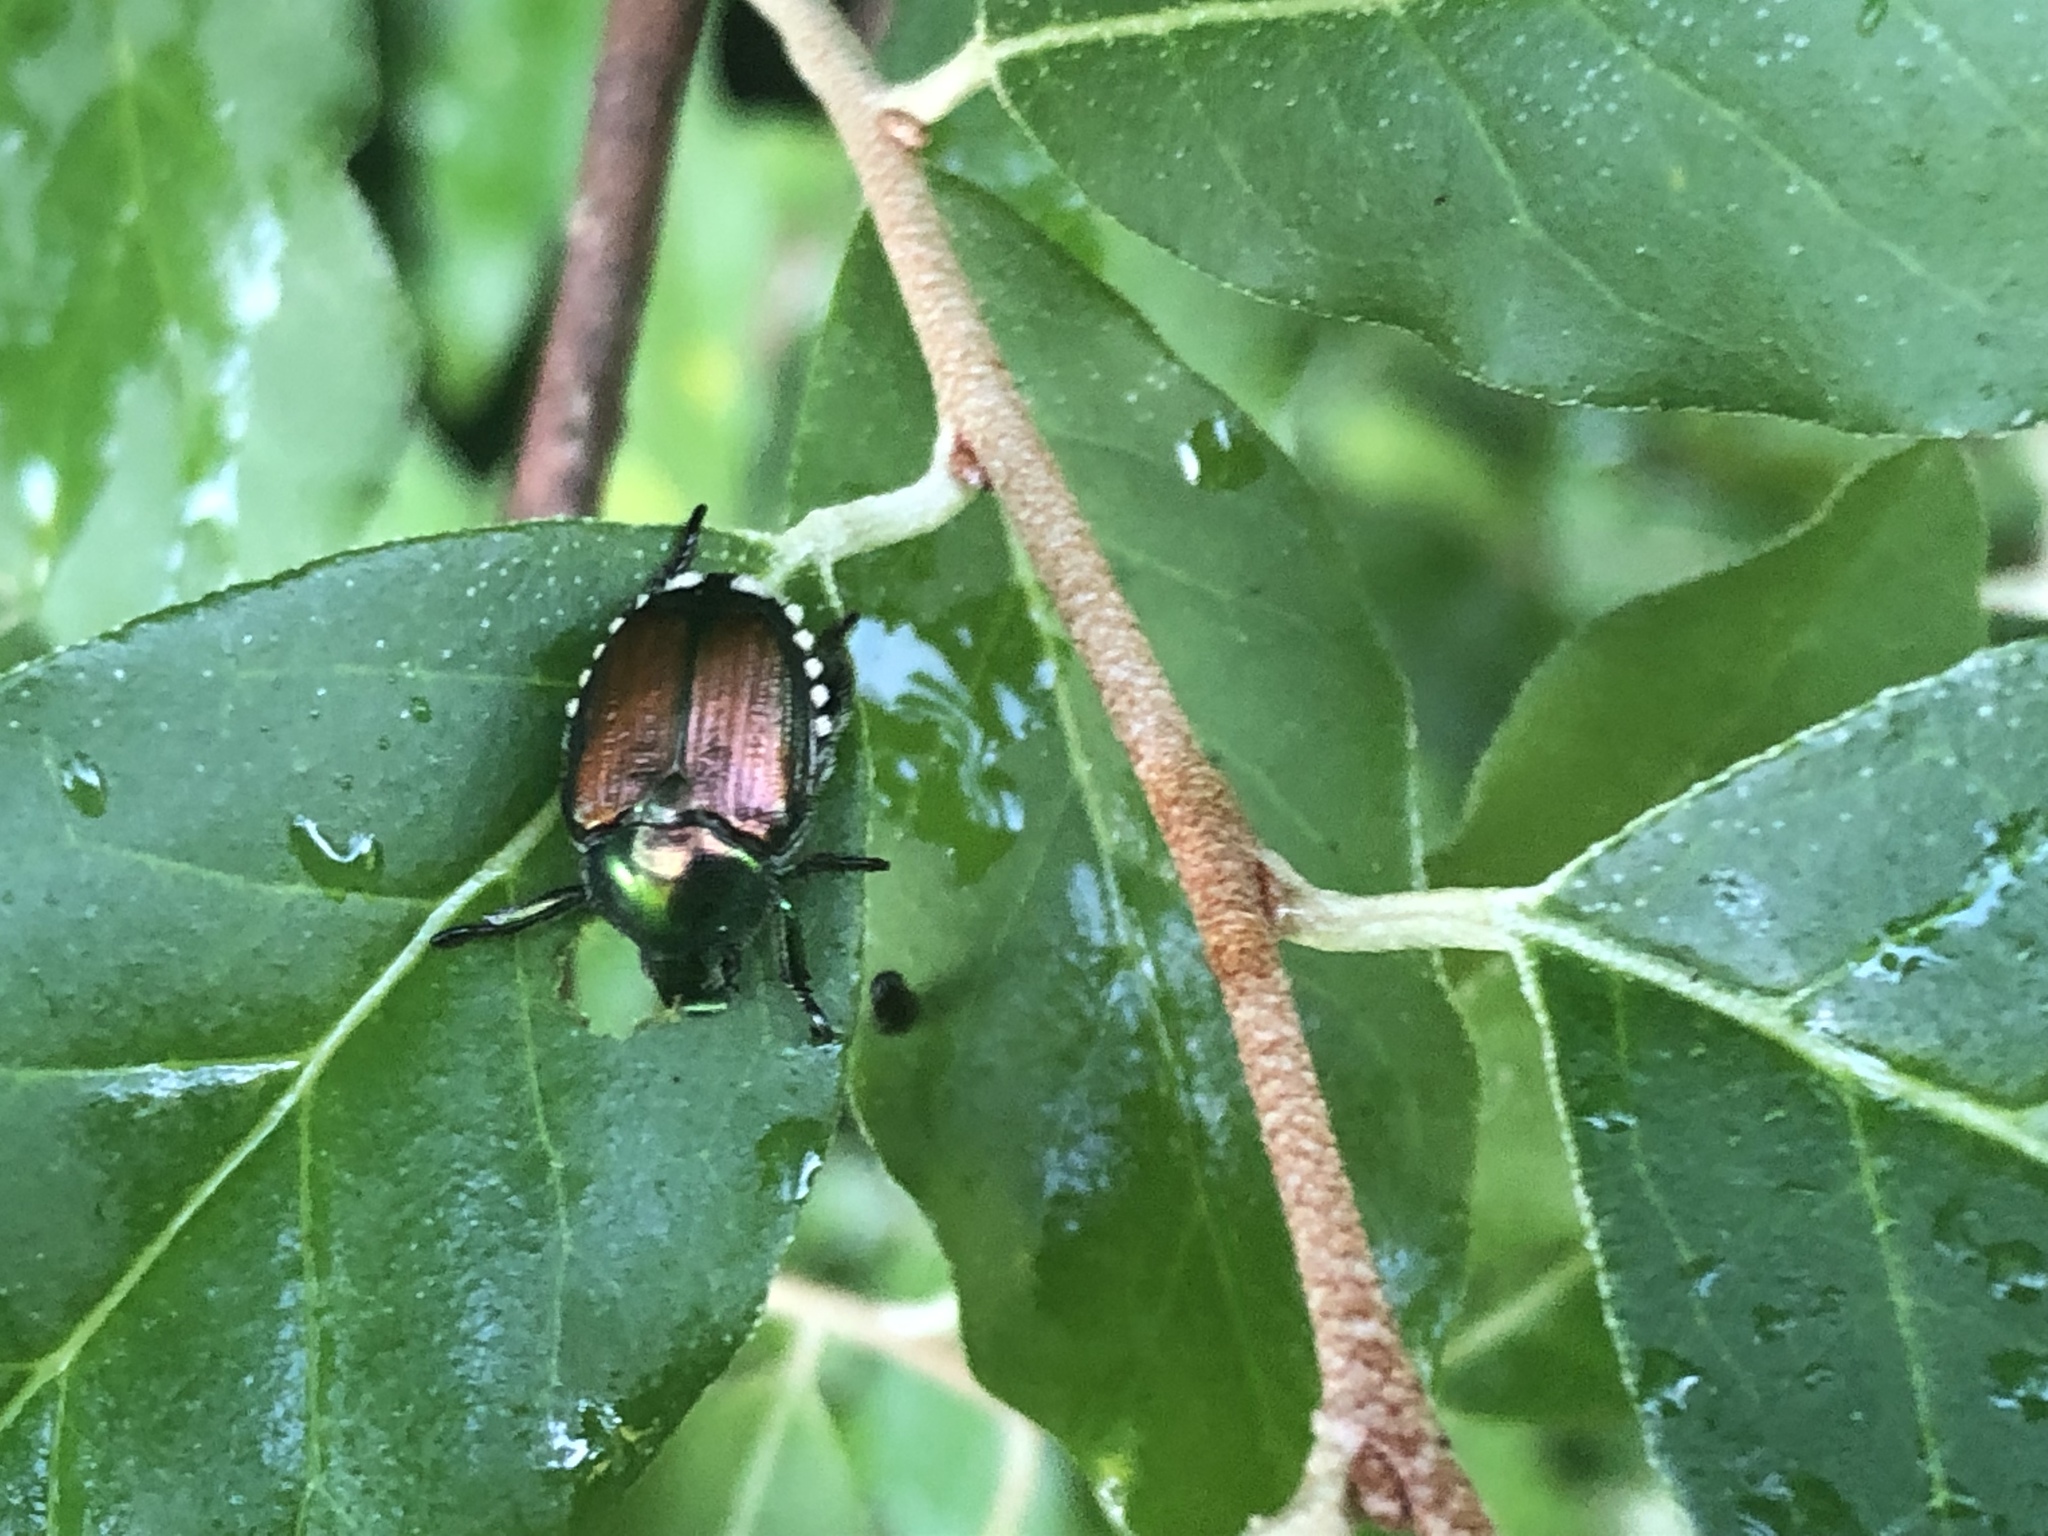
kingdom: Animalia
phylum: Arthropoda
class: Insecta
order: Coleoptera
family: Scarabaeidae
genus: Popillia
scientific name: Popillia japonica
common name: Japanese beetle
